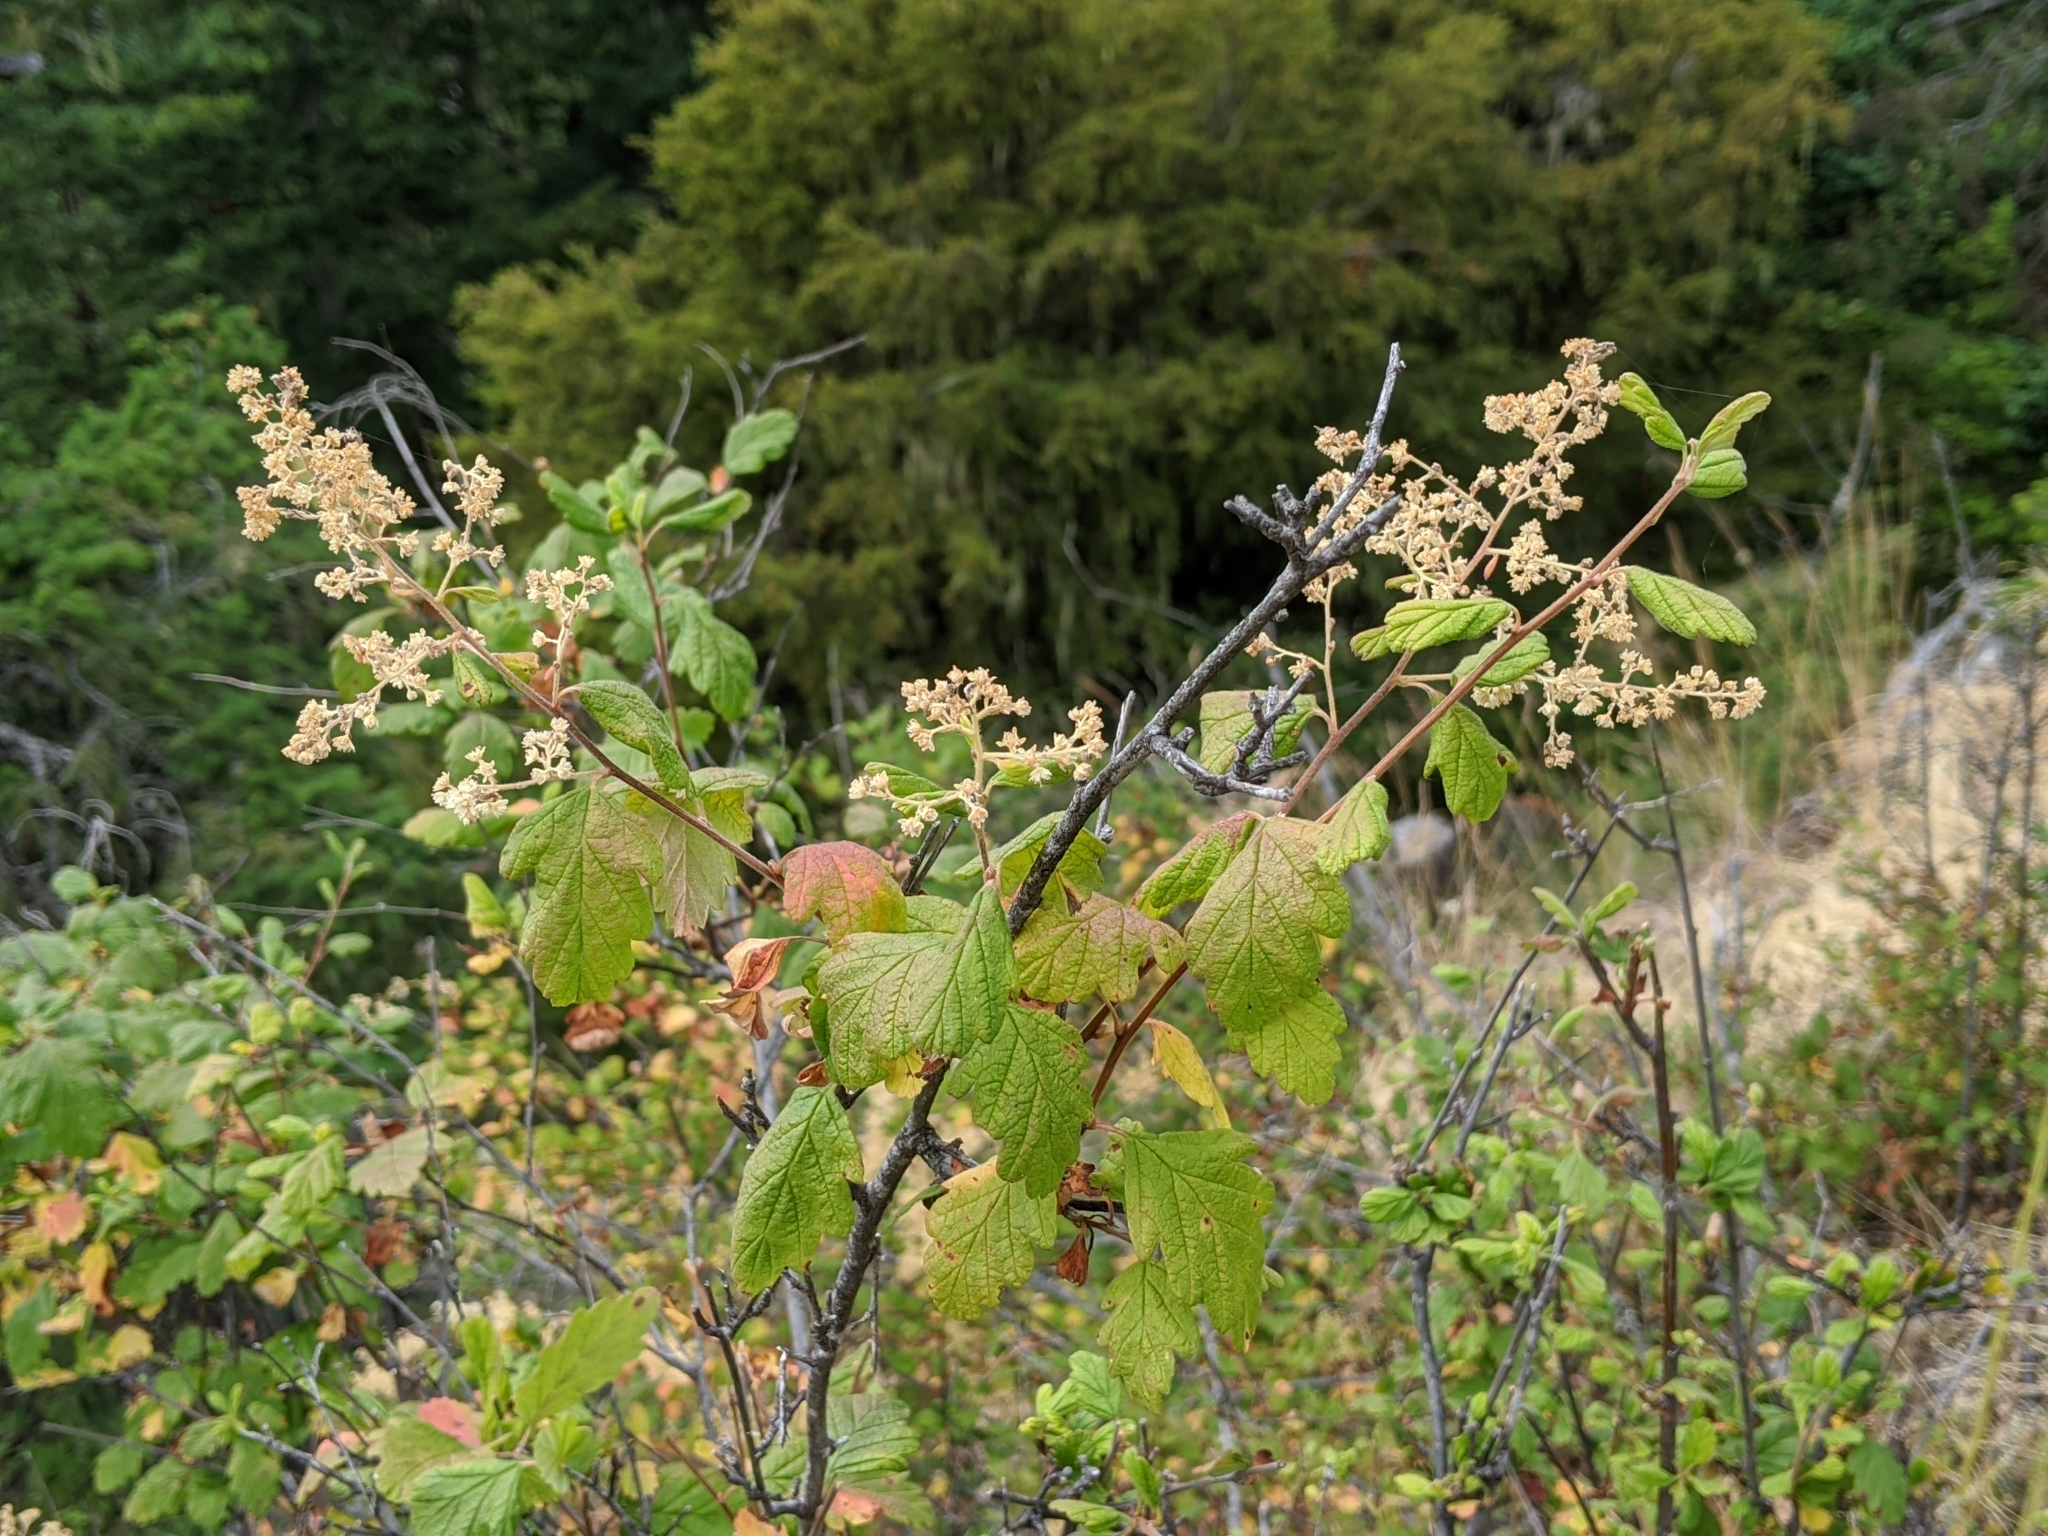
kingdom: Plantae
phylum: Tracheophyta
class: Magnoliopsida
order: Rosales
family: Rosaceae
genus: Holodiscus
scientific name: Holodiscus discolor
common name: Oceanspray
